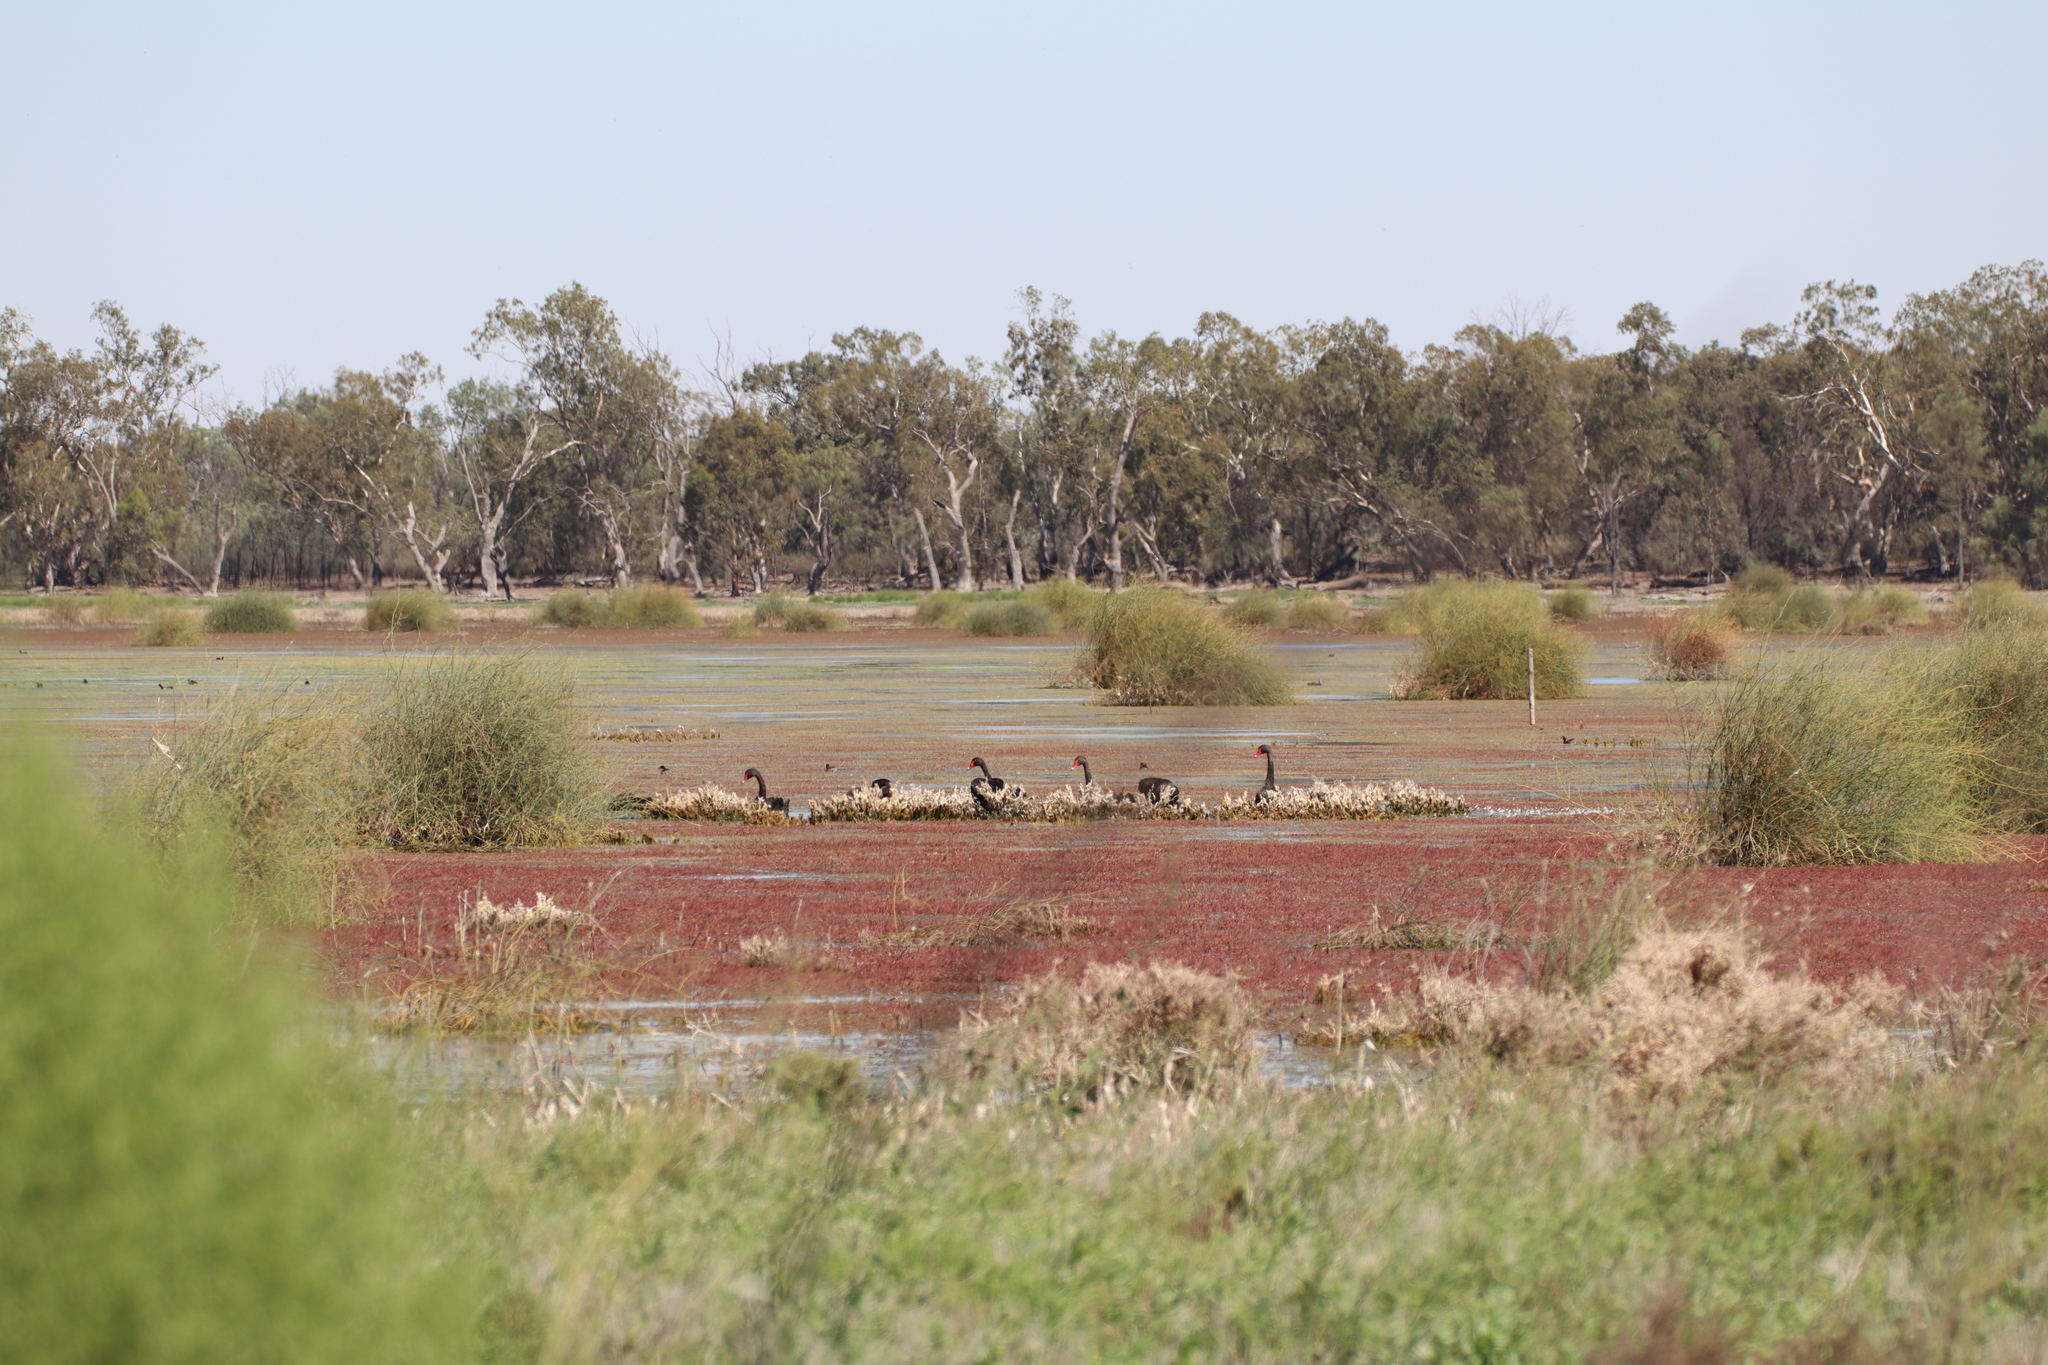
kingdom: Animalia
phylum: Chordata
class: Aves
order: Anseriformes
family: Anatidae
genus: Cygnus
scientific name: Cygnus atratus
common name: Black swan
